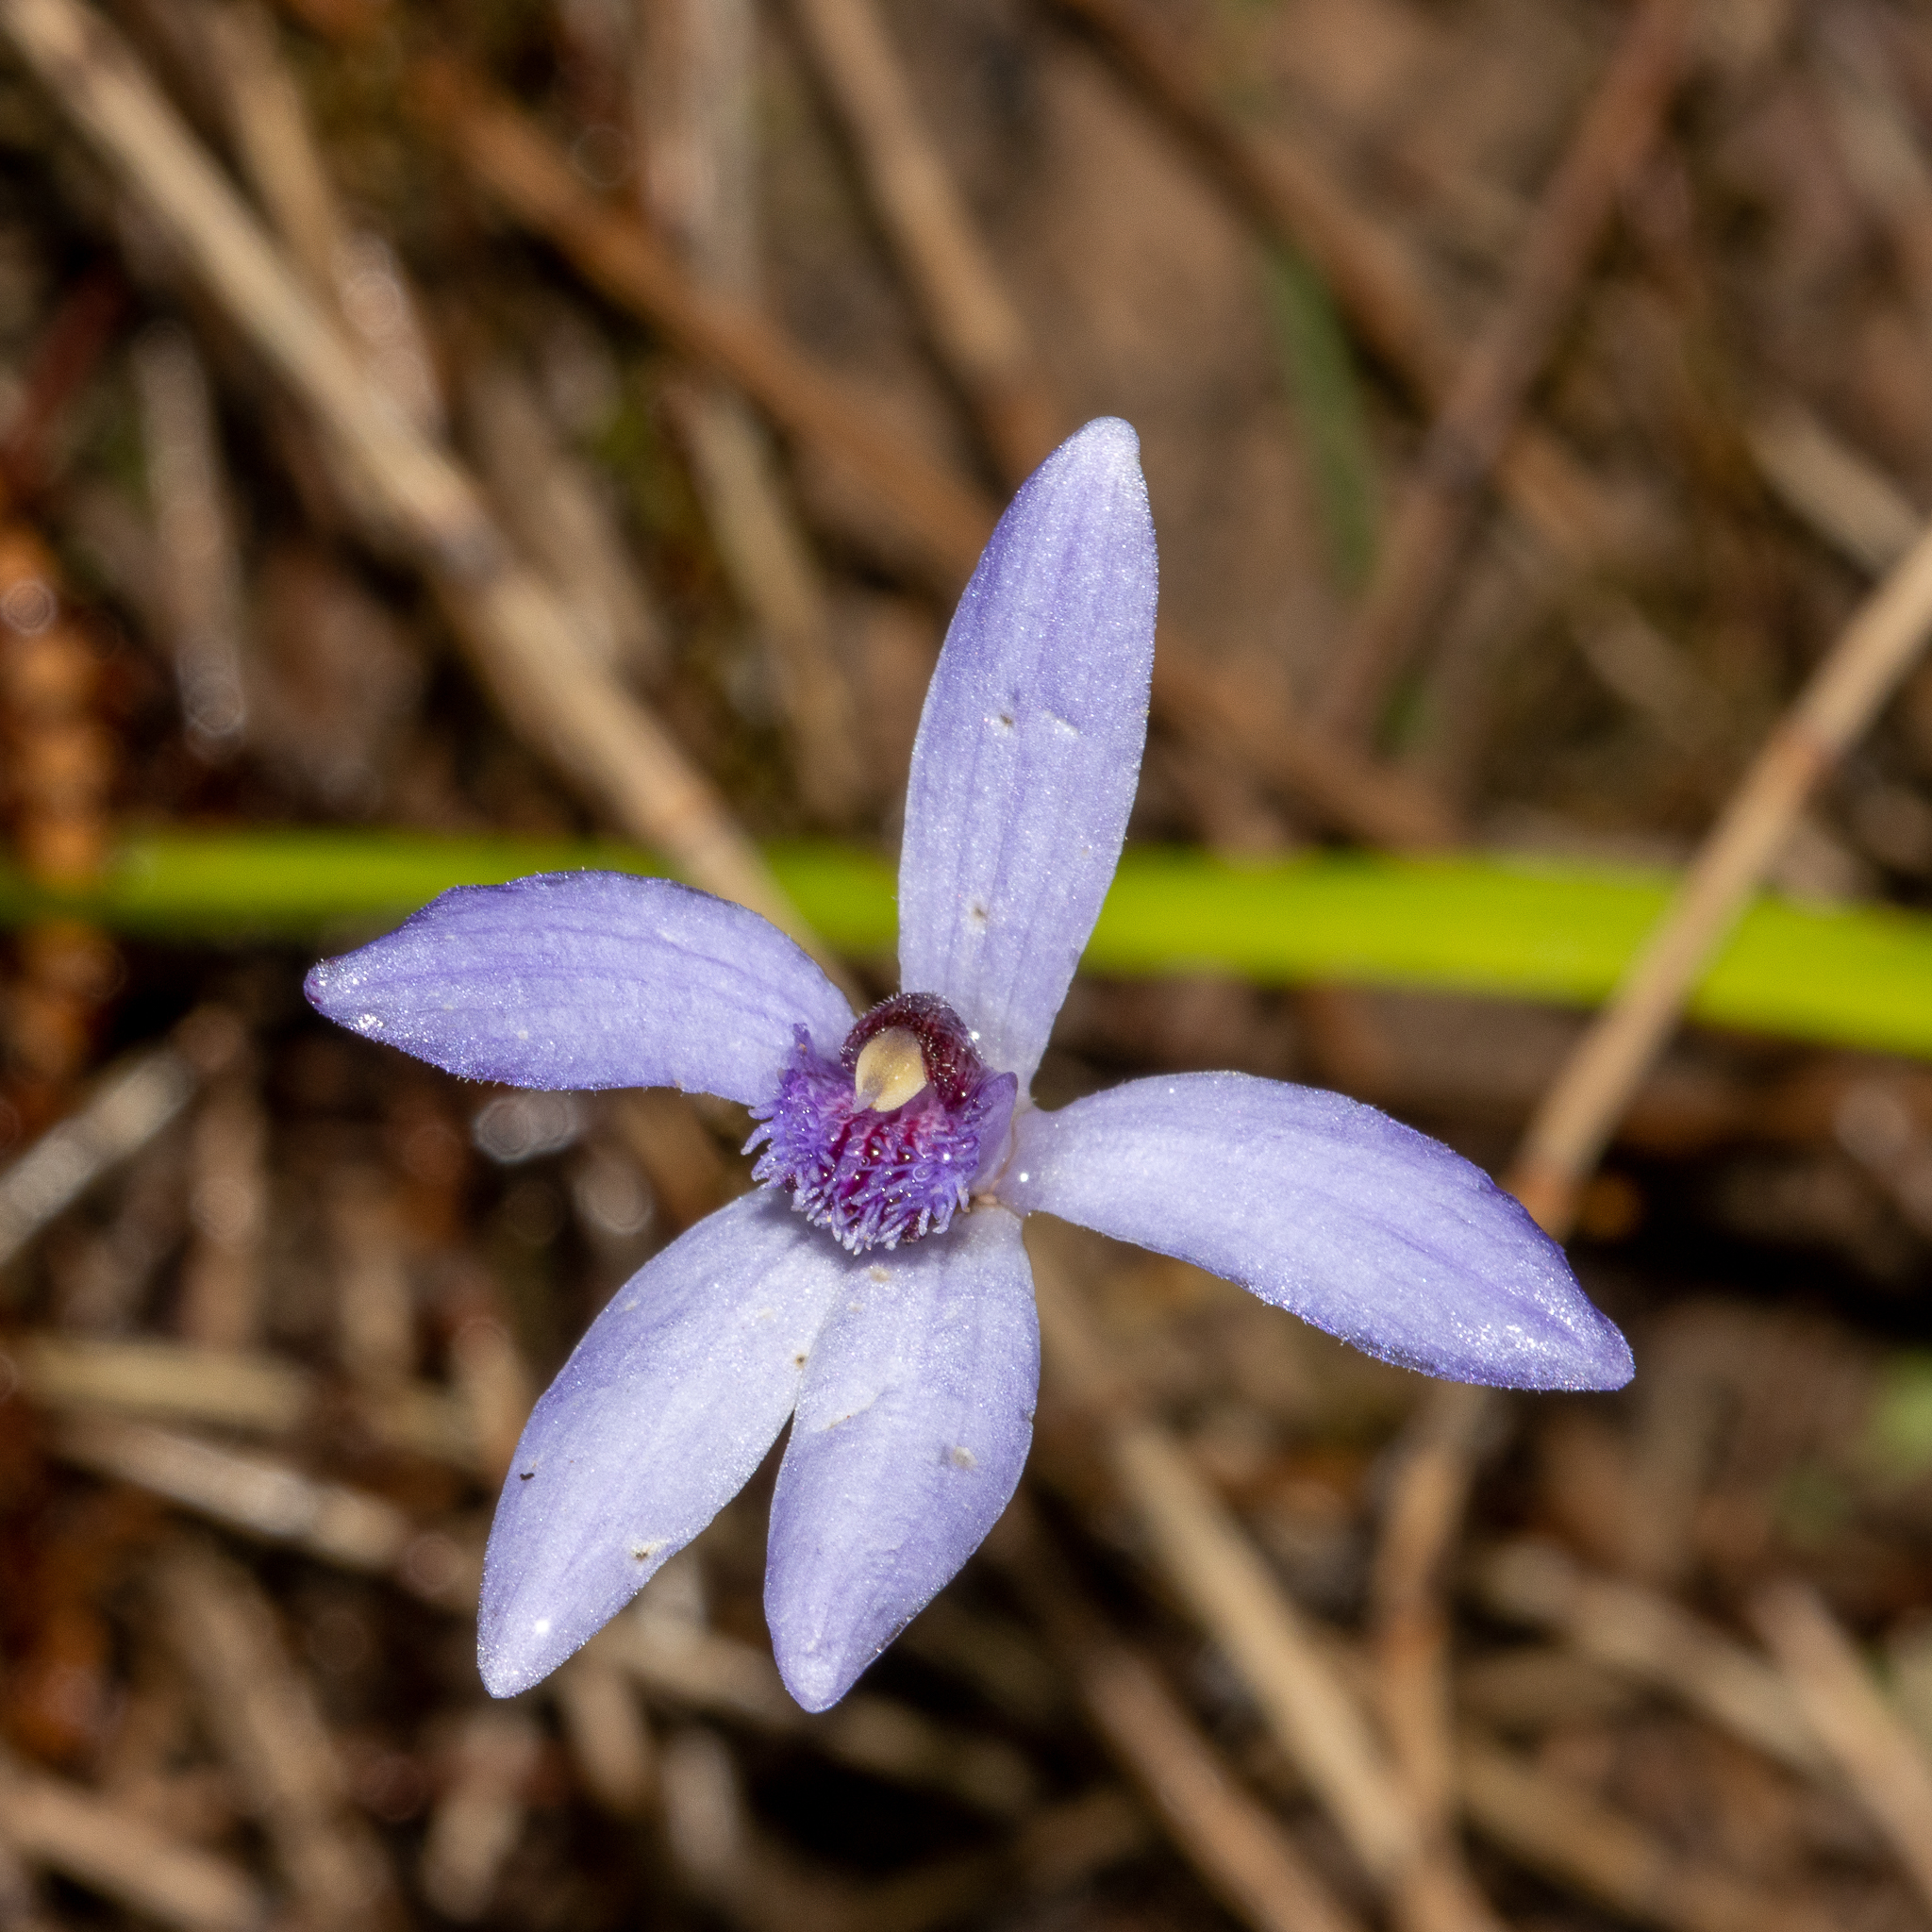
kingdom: Plantae
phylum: Tracheophyta
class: Liliopsida
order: Asparagales
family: Orchidaceae
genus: Pheladenia
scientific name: Pheladenia deformis
